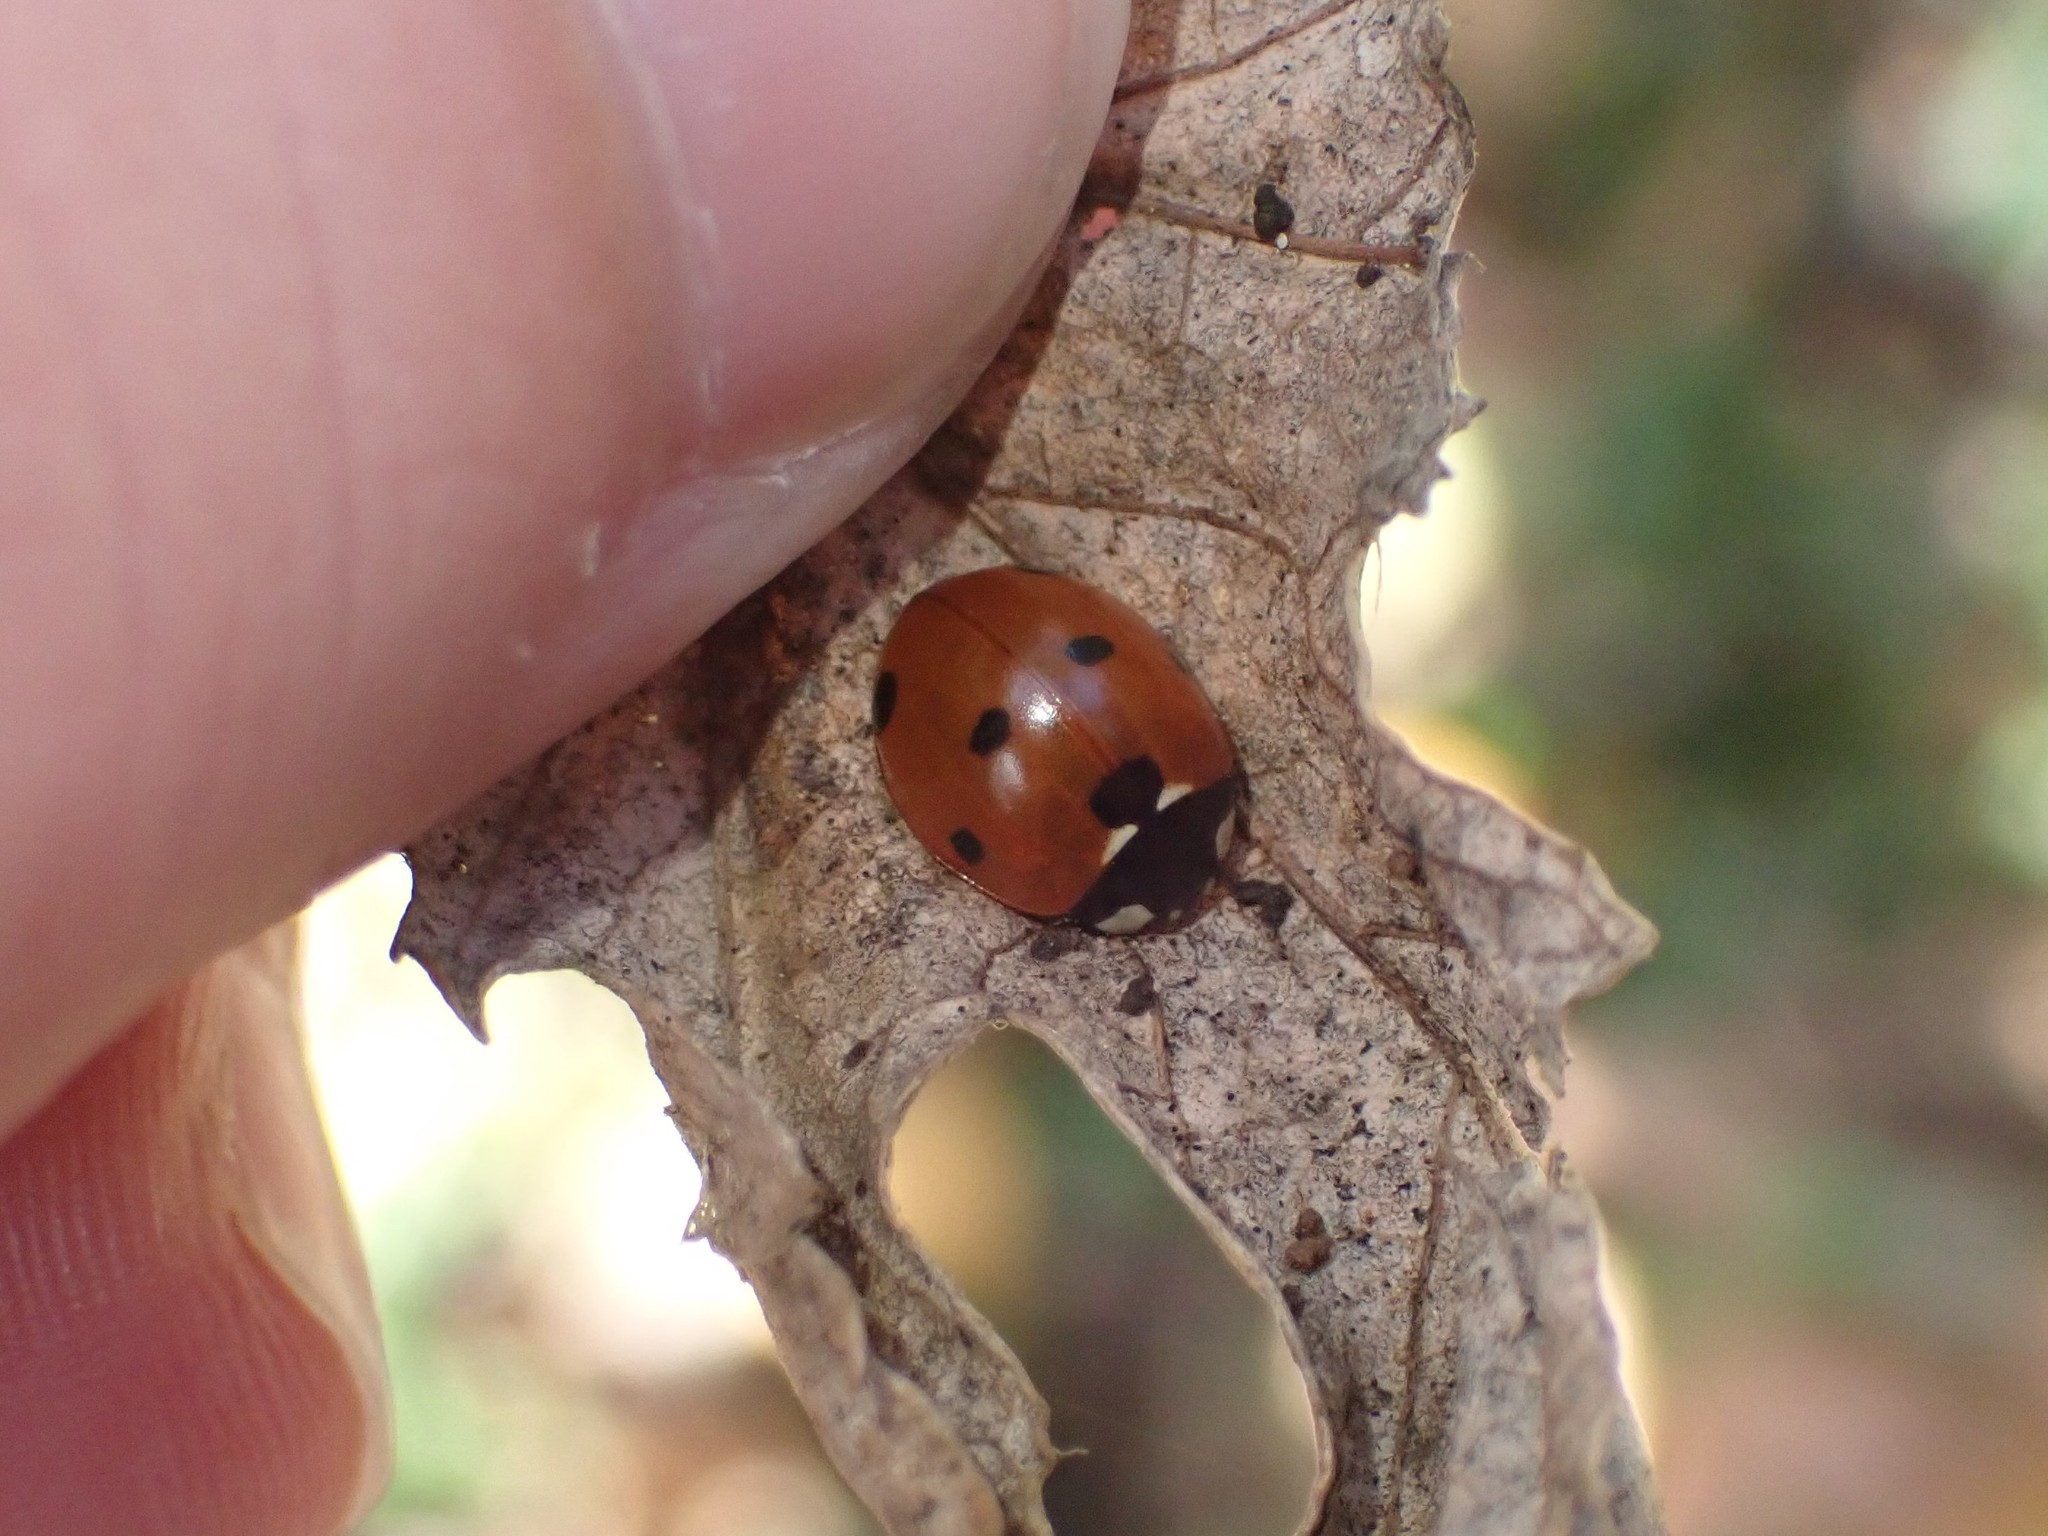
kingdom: Animalia
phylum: Arthropoda
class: Insecta
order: Coleoptera
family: Coccinellidae
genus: Coccinella
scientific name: Coccinella septempunctata
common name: Sevenspotted lady beetle
